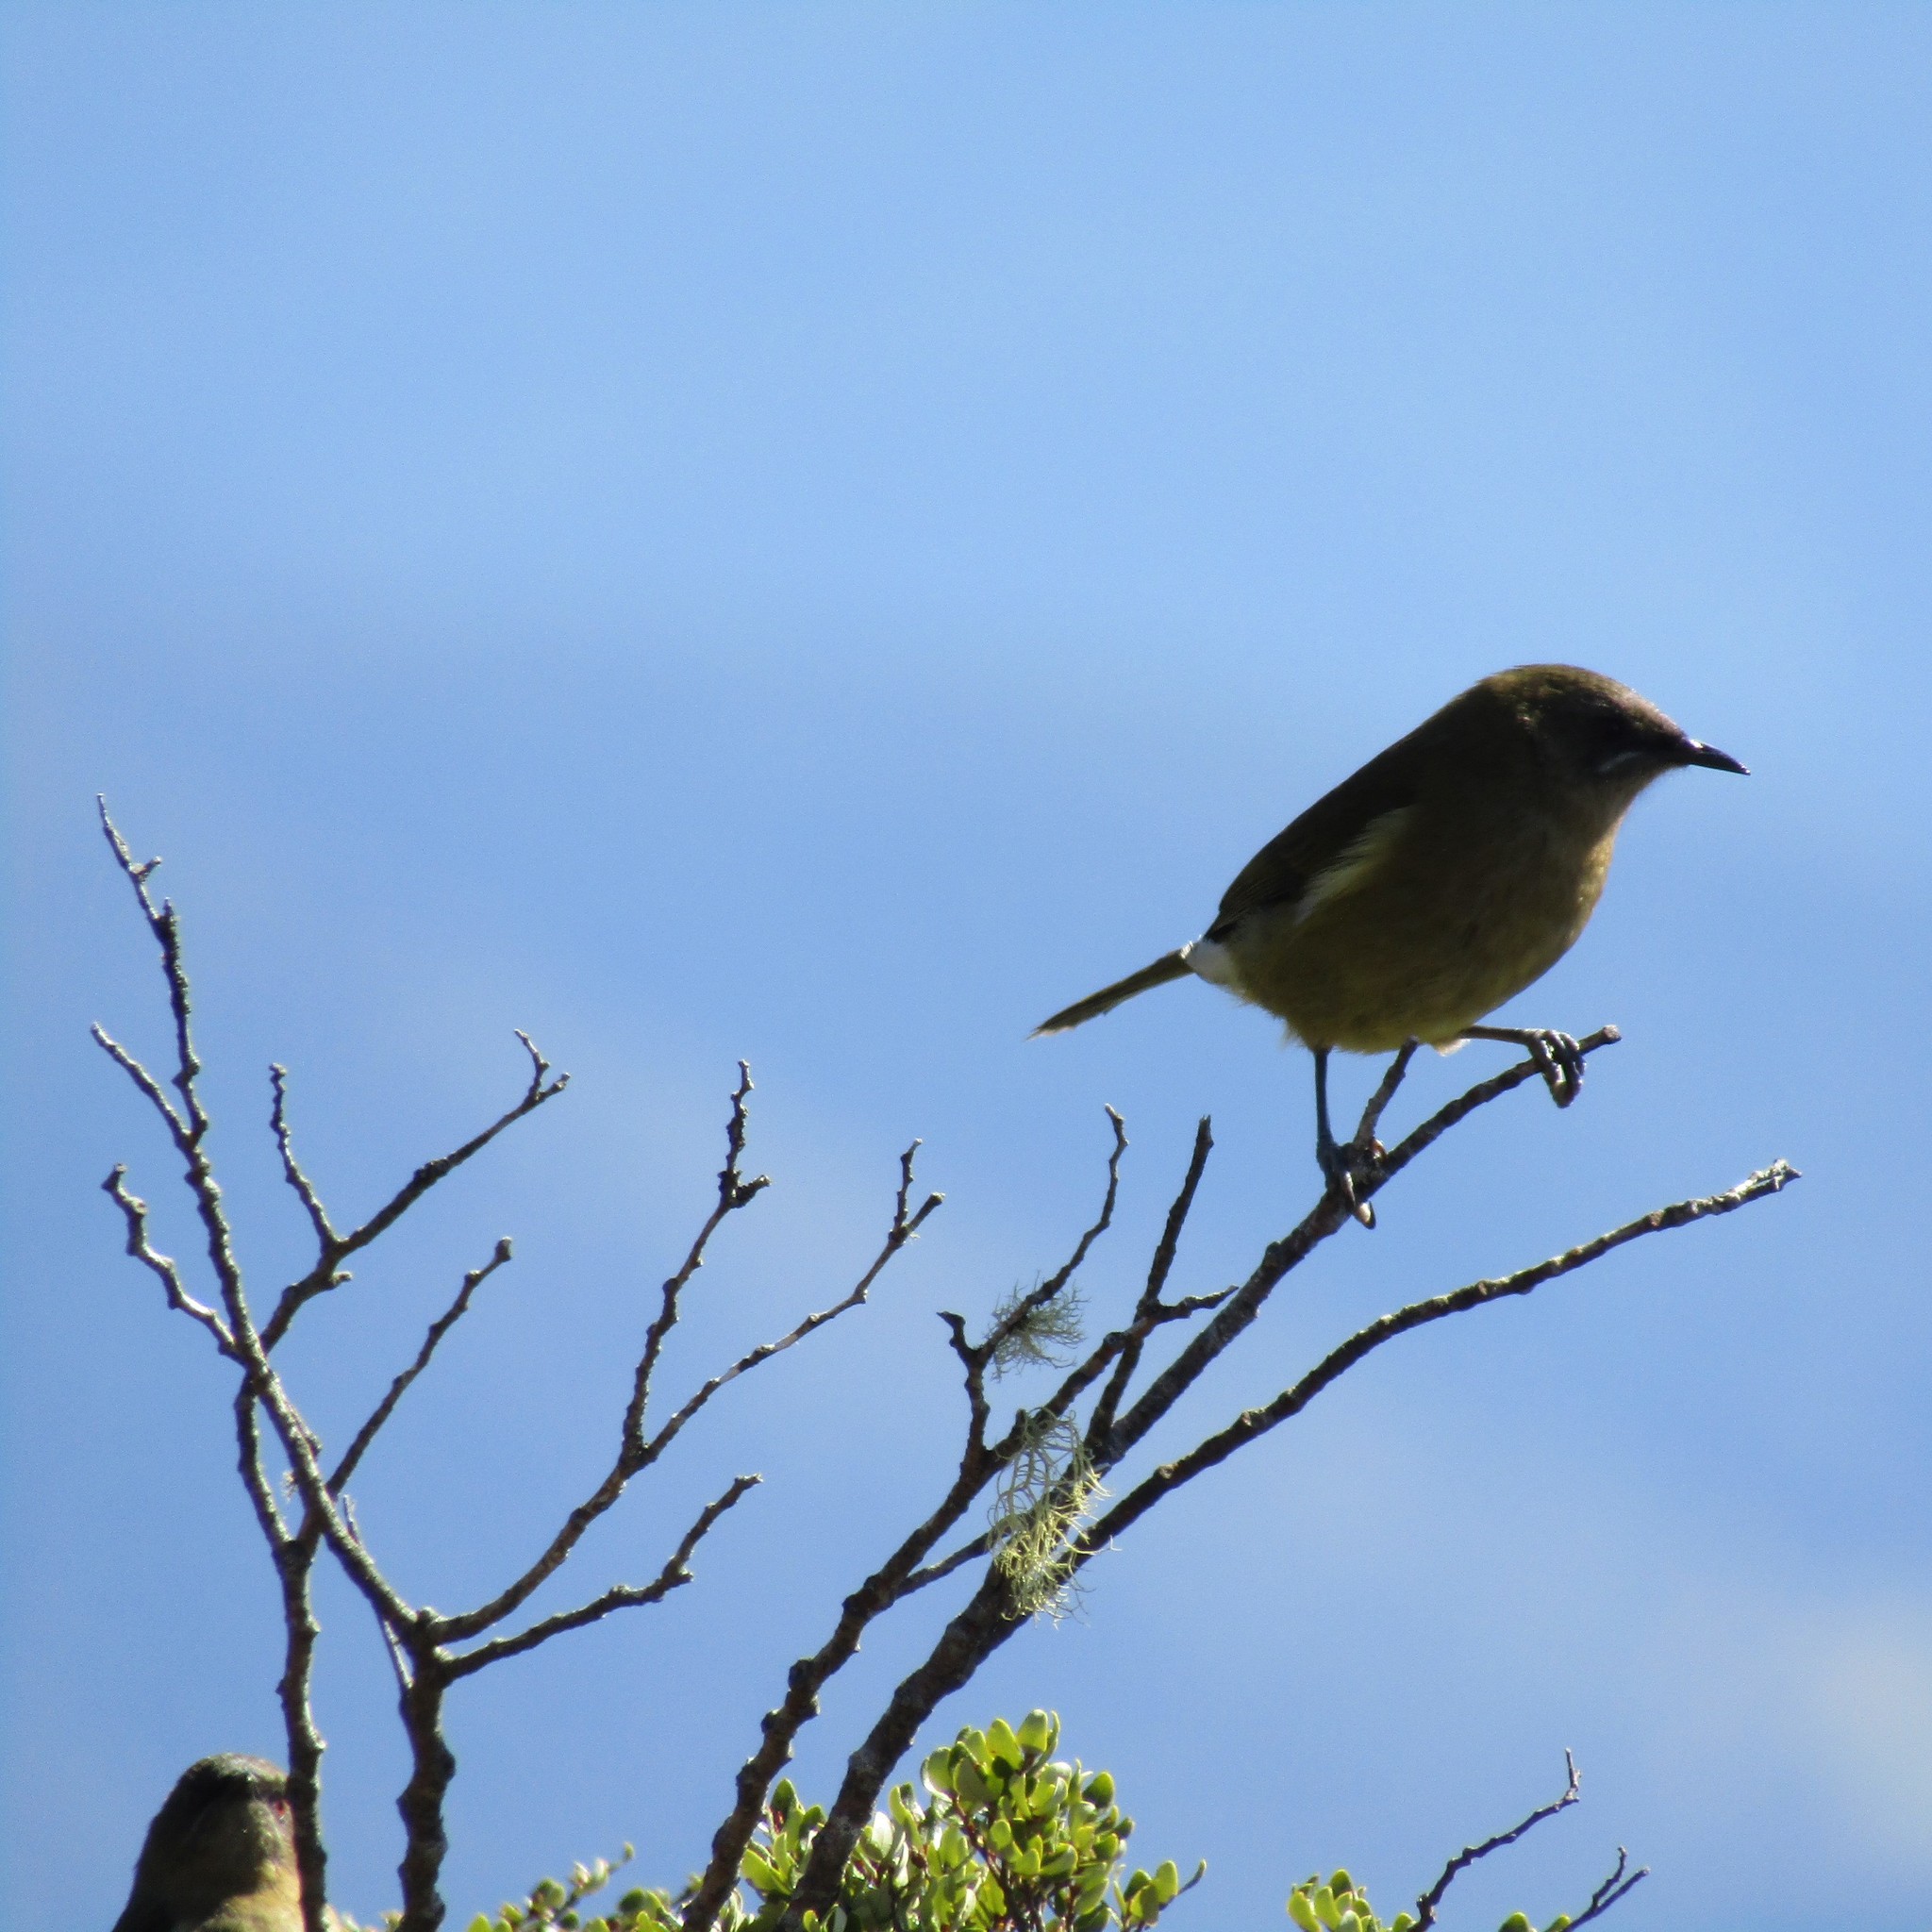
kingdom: Animalia
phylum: Chordata
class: Aves
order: Passeriformes
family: Meliphagidae
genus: Anthornis
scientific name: Anthornis melanura
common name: New zealand bellbird
